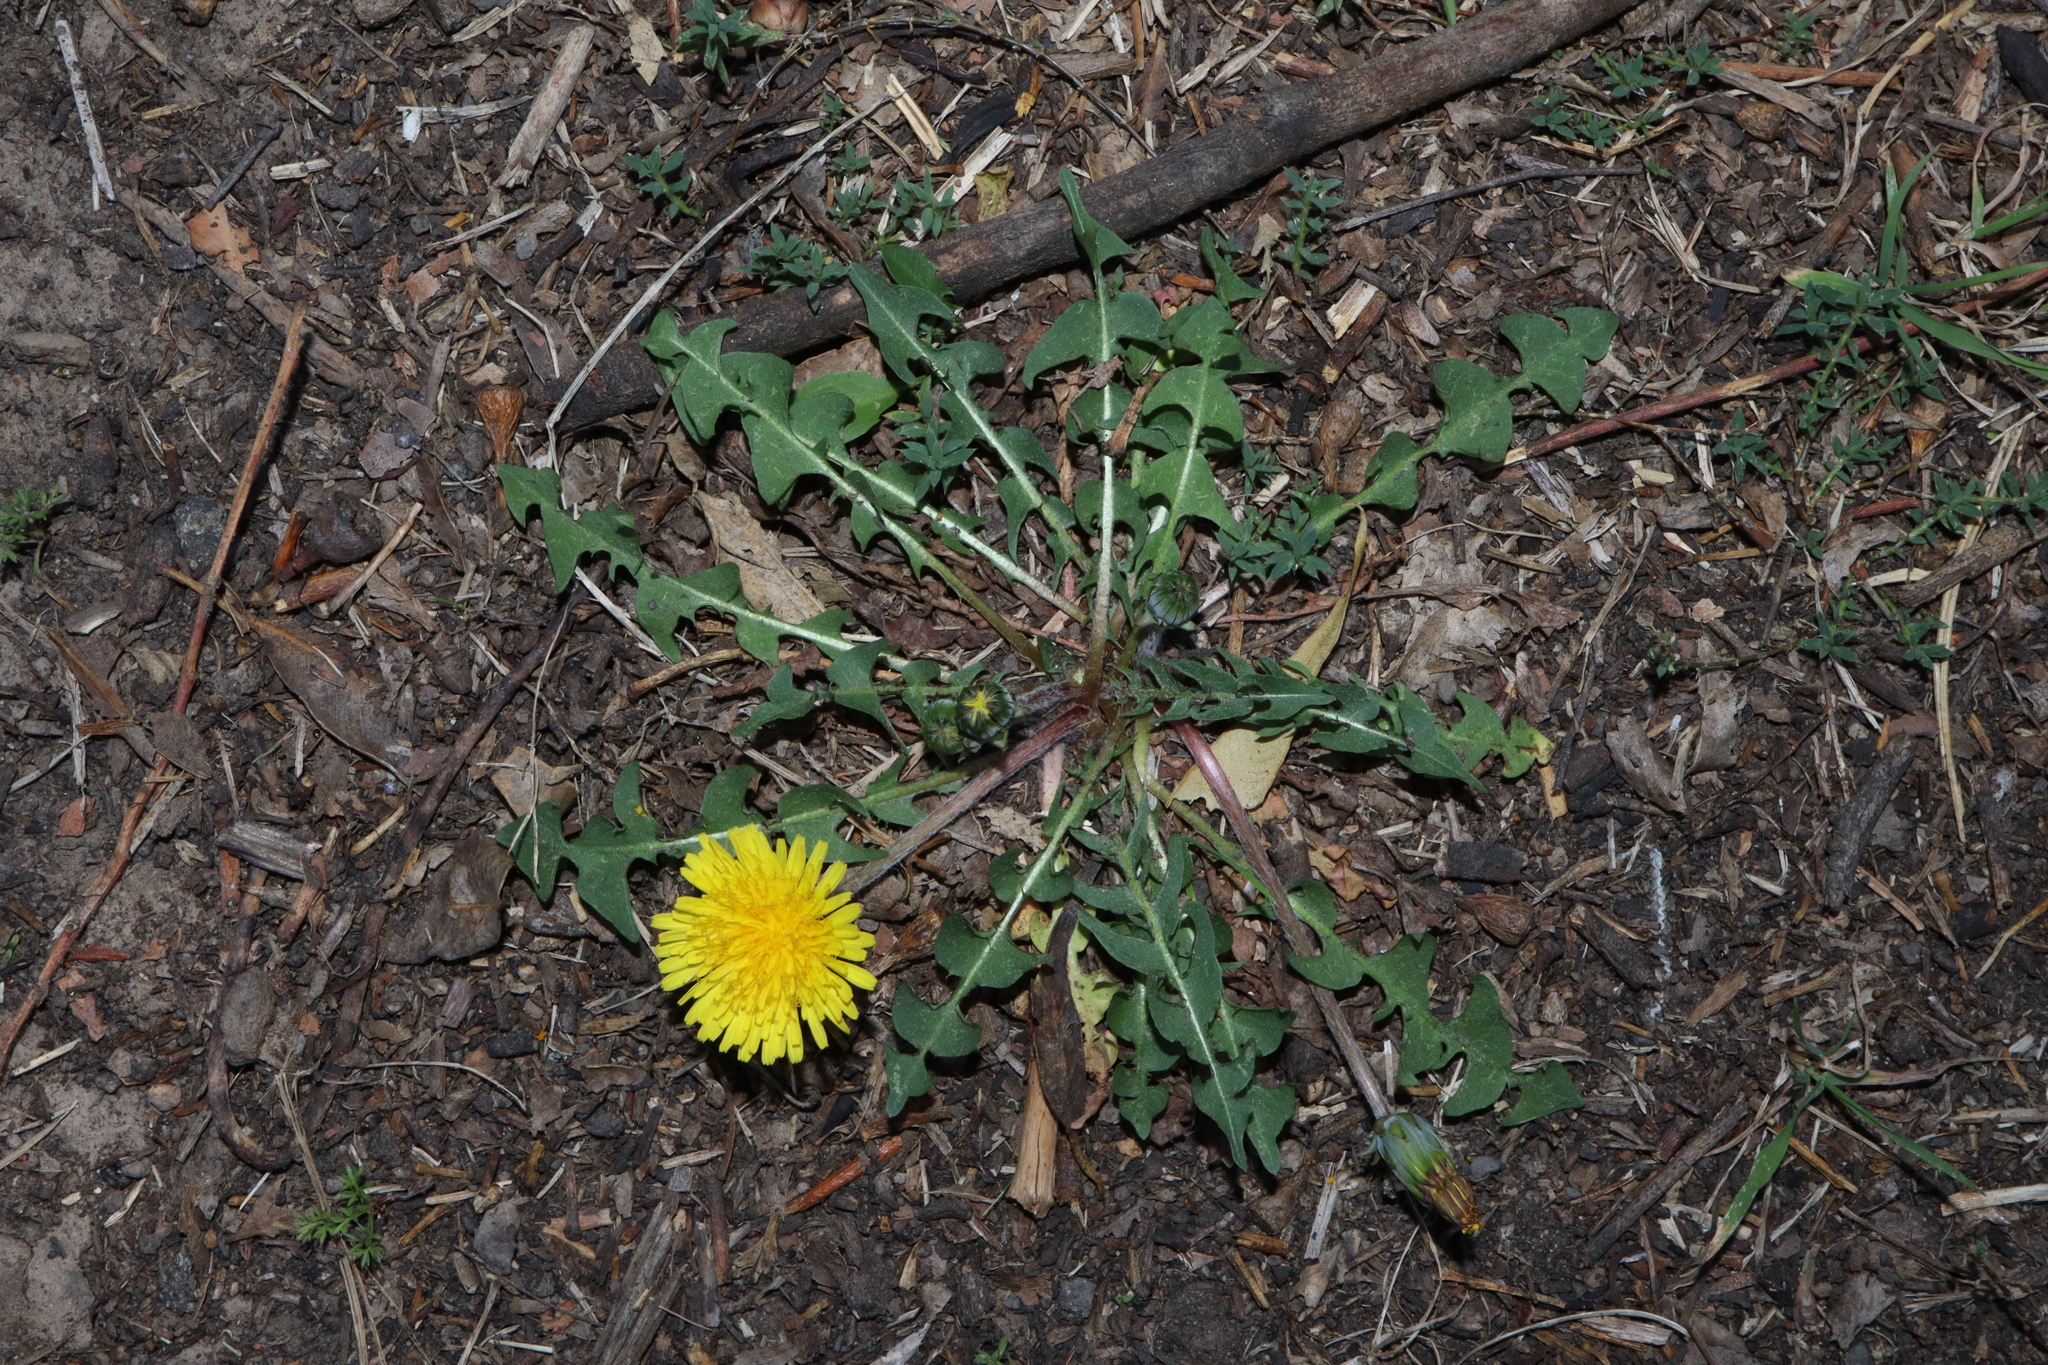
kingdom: Plantae
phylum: Tracheophyta
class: Magnoliopsida
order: Asterales
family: Asteraceae
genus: Taraxacum
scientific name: Taraxacum officinale
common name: Common dandelion
